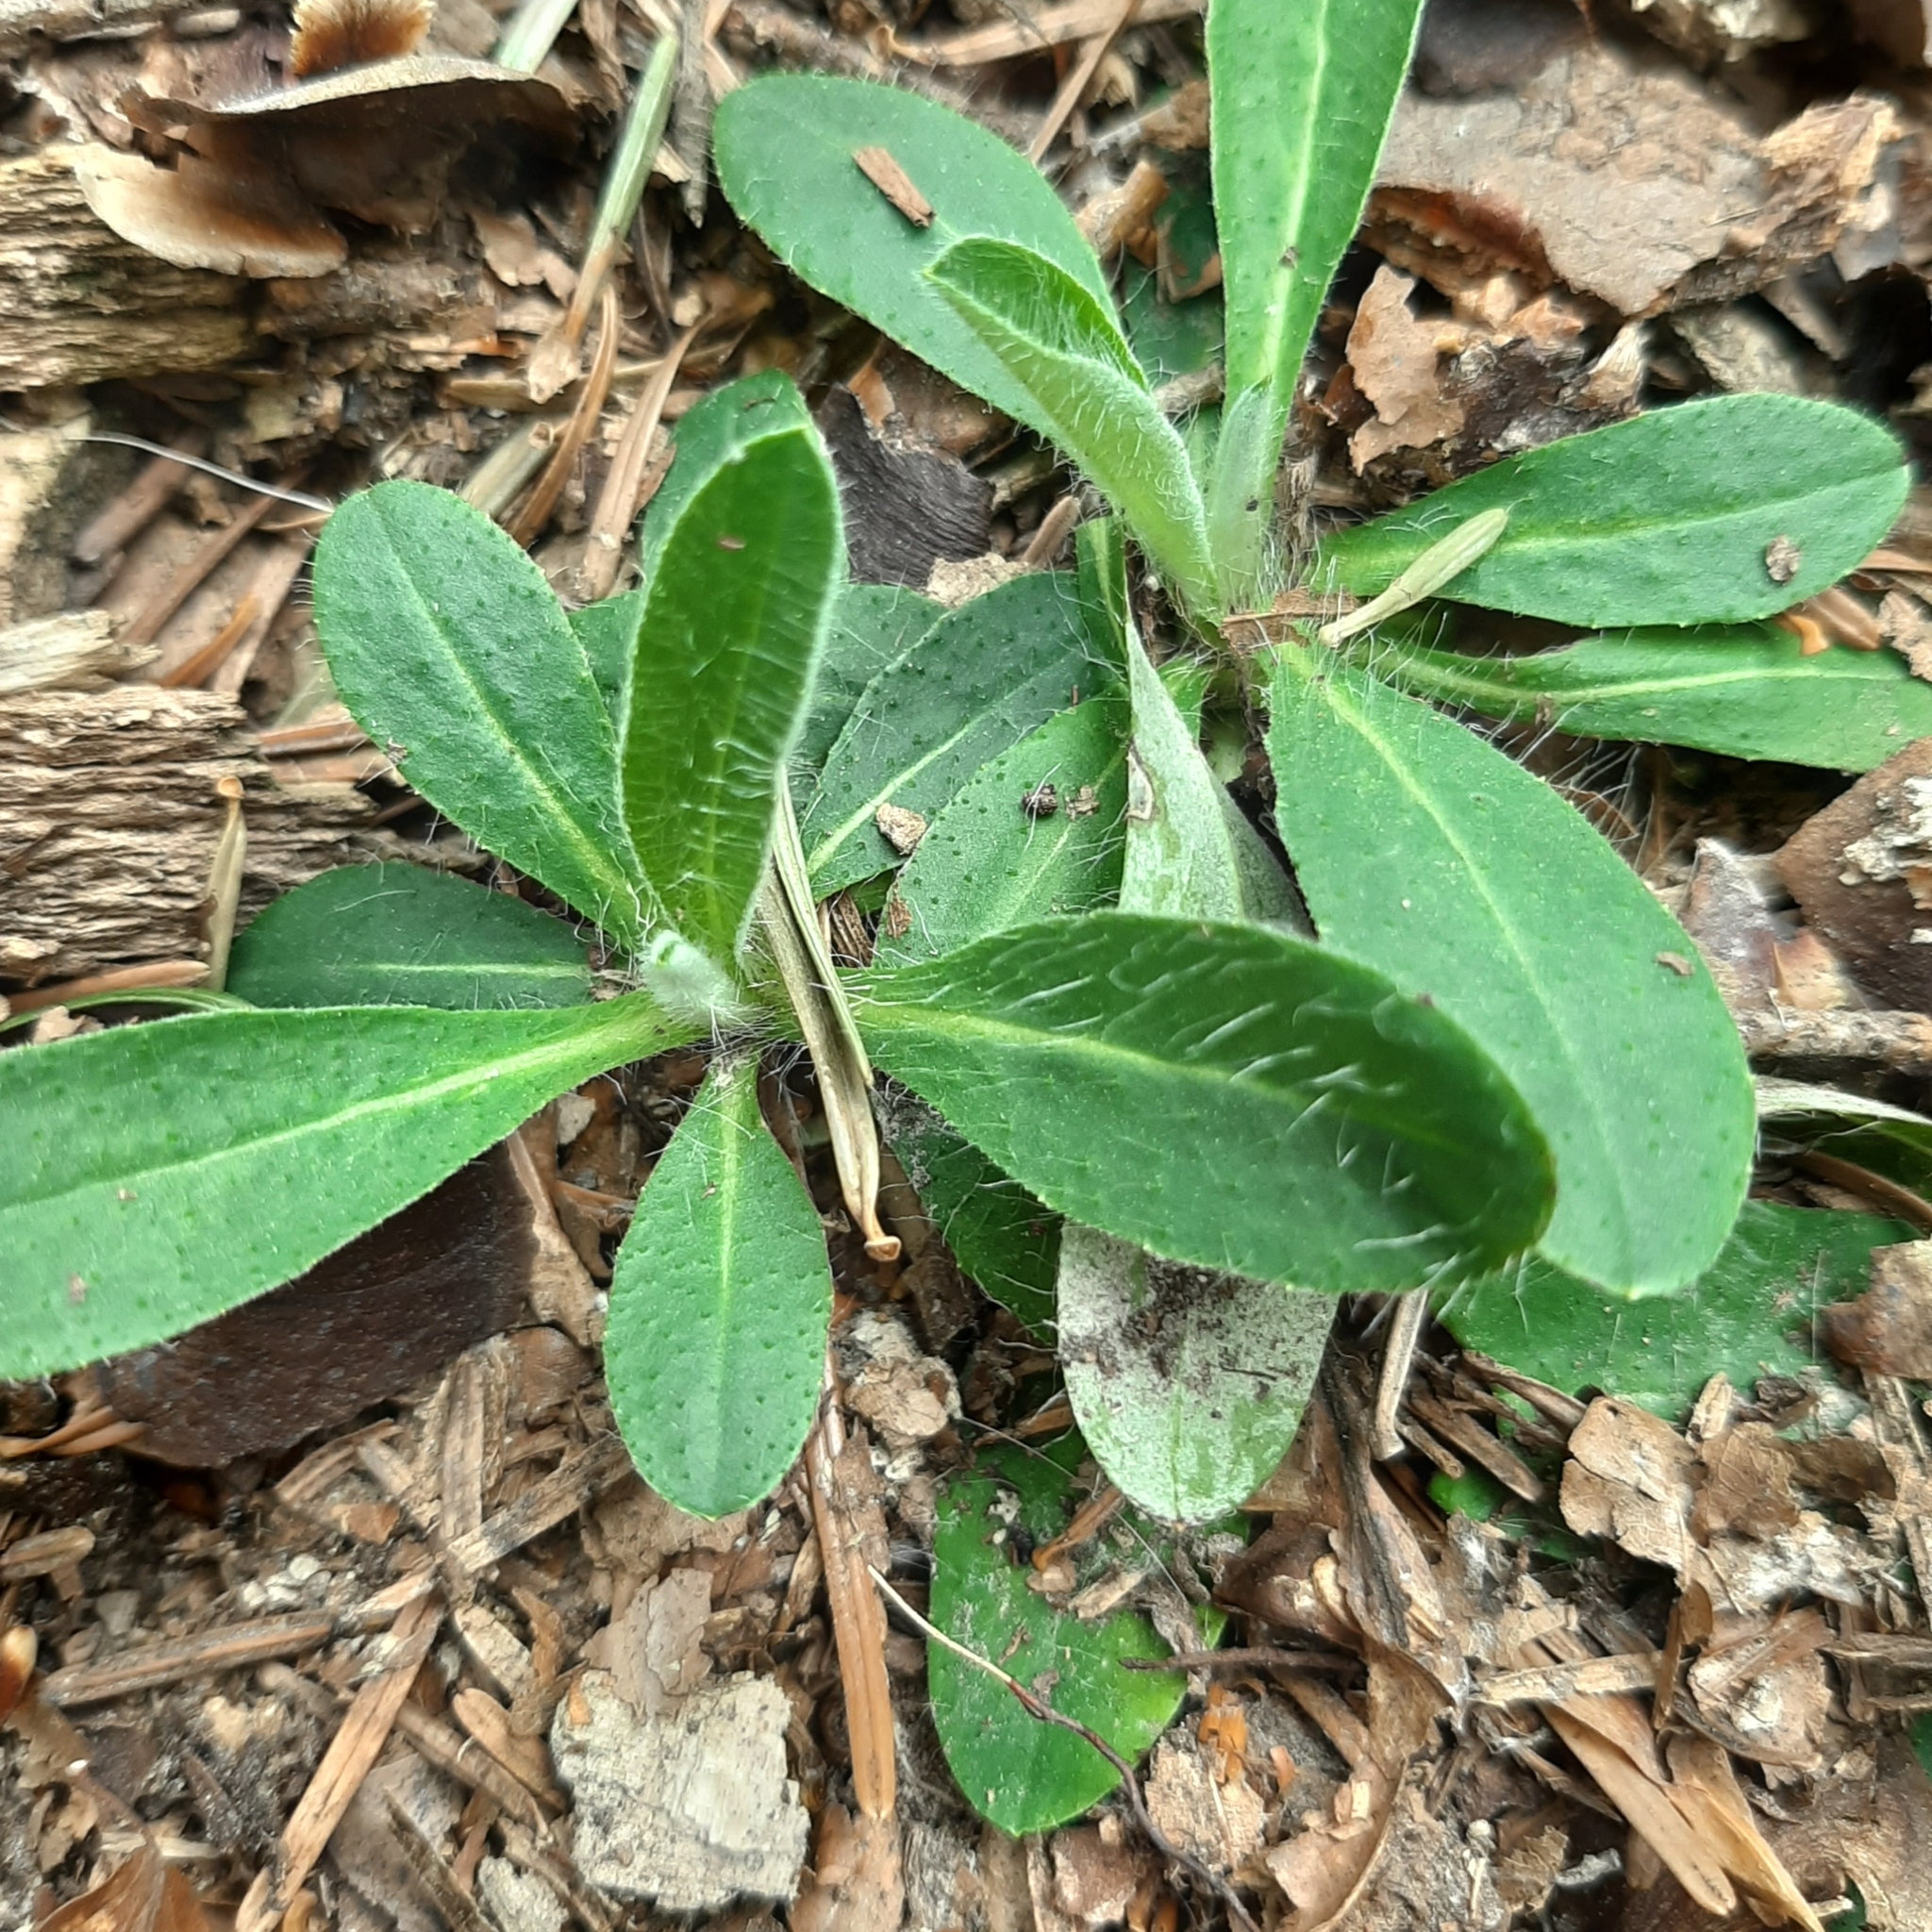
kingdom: Plantae
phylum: Tracheophyta
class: Magnoliopsida
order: Asterales
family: Asteraceae
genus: Pilosella
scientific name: Pilosella officinarum
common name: Mouse-ear hawkweed
